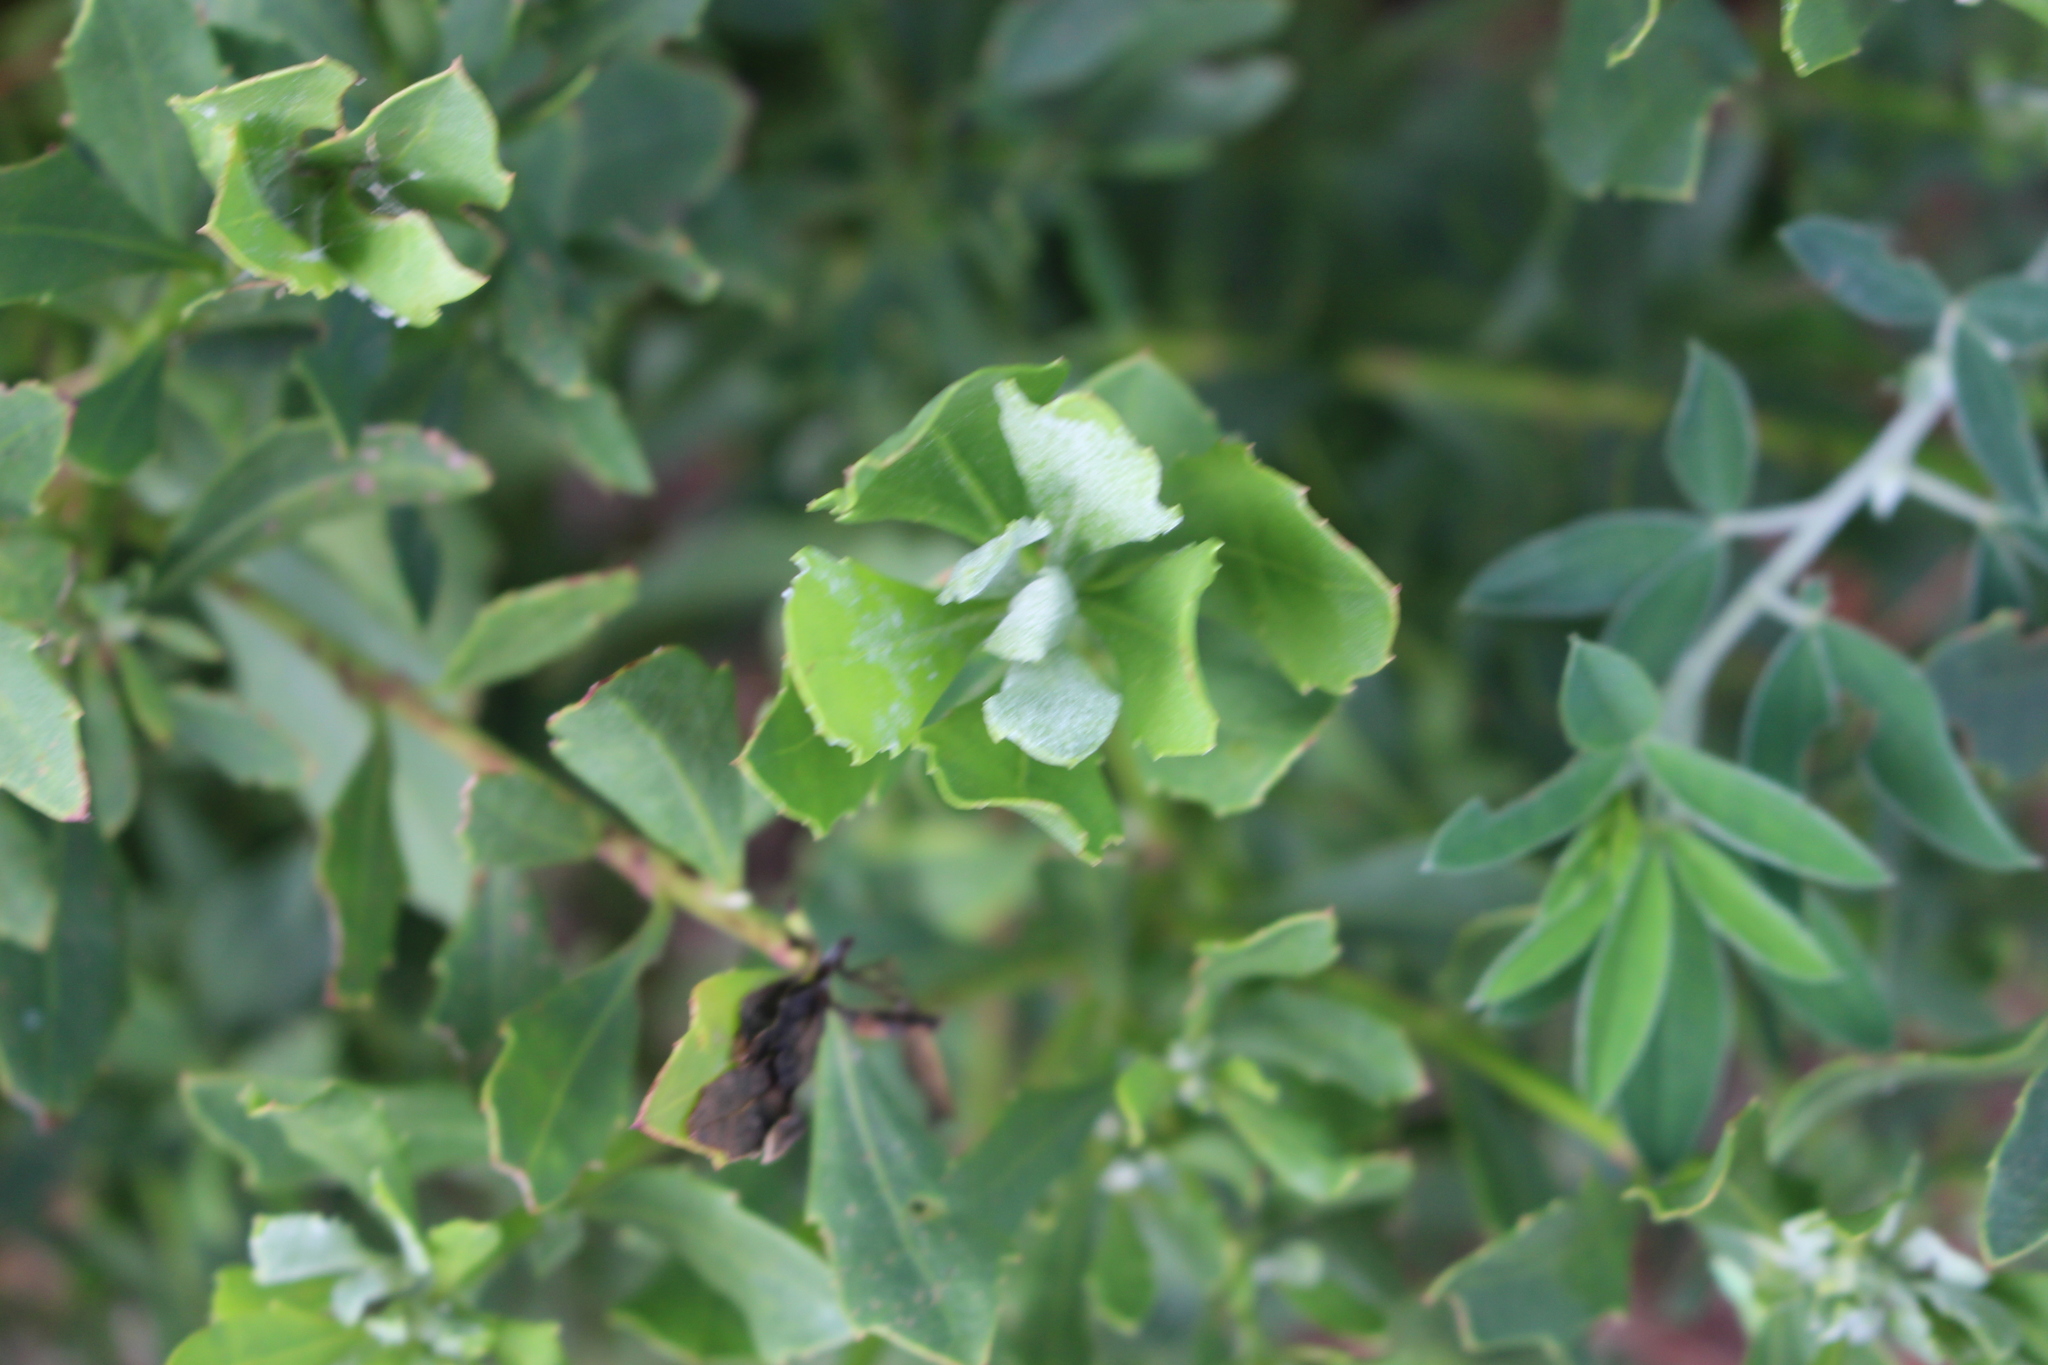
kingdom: Plantae
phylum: Tracheophyta
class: Magnoliopsida
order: Asterales
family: Asteraceae
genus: Osteospermum
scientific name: Osteospermum moniliferum
